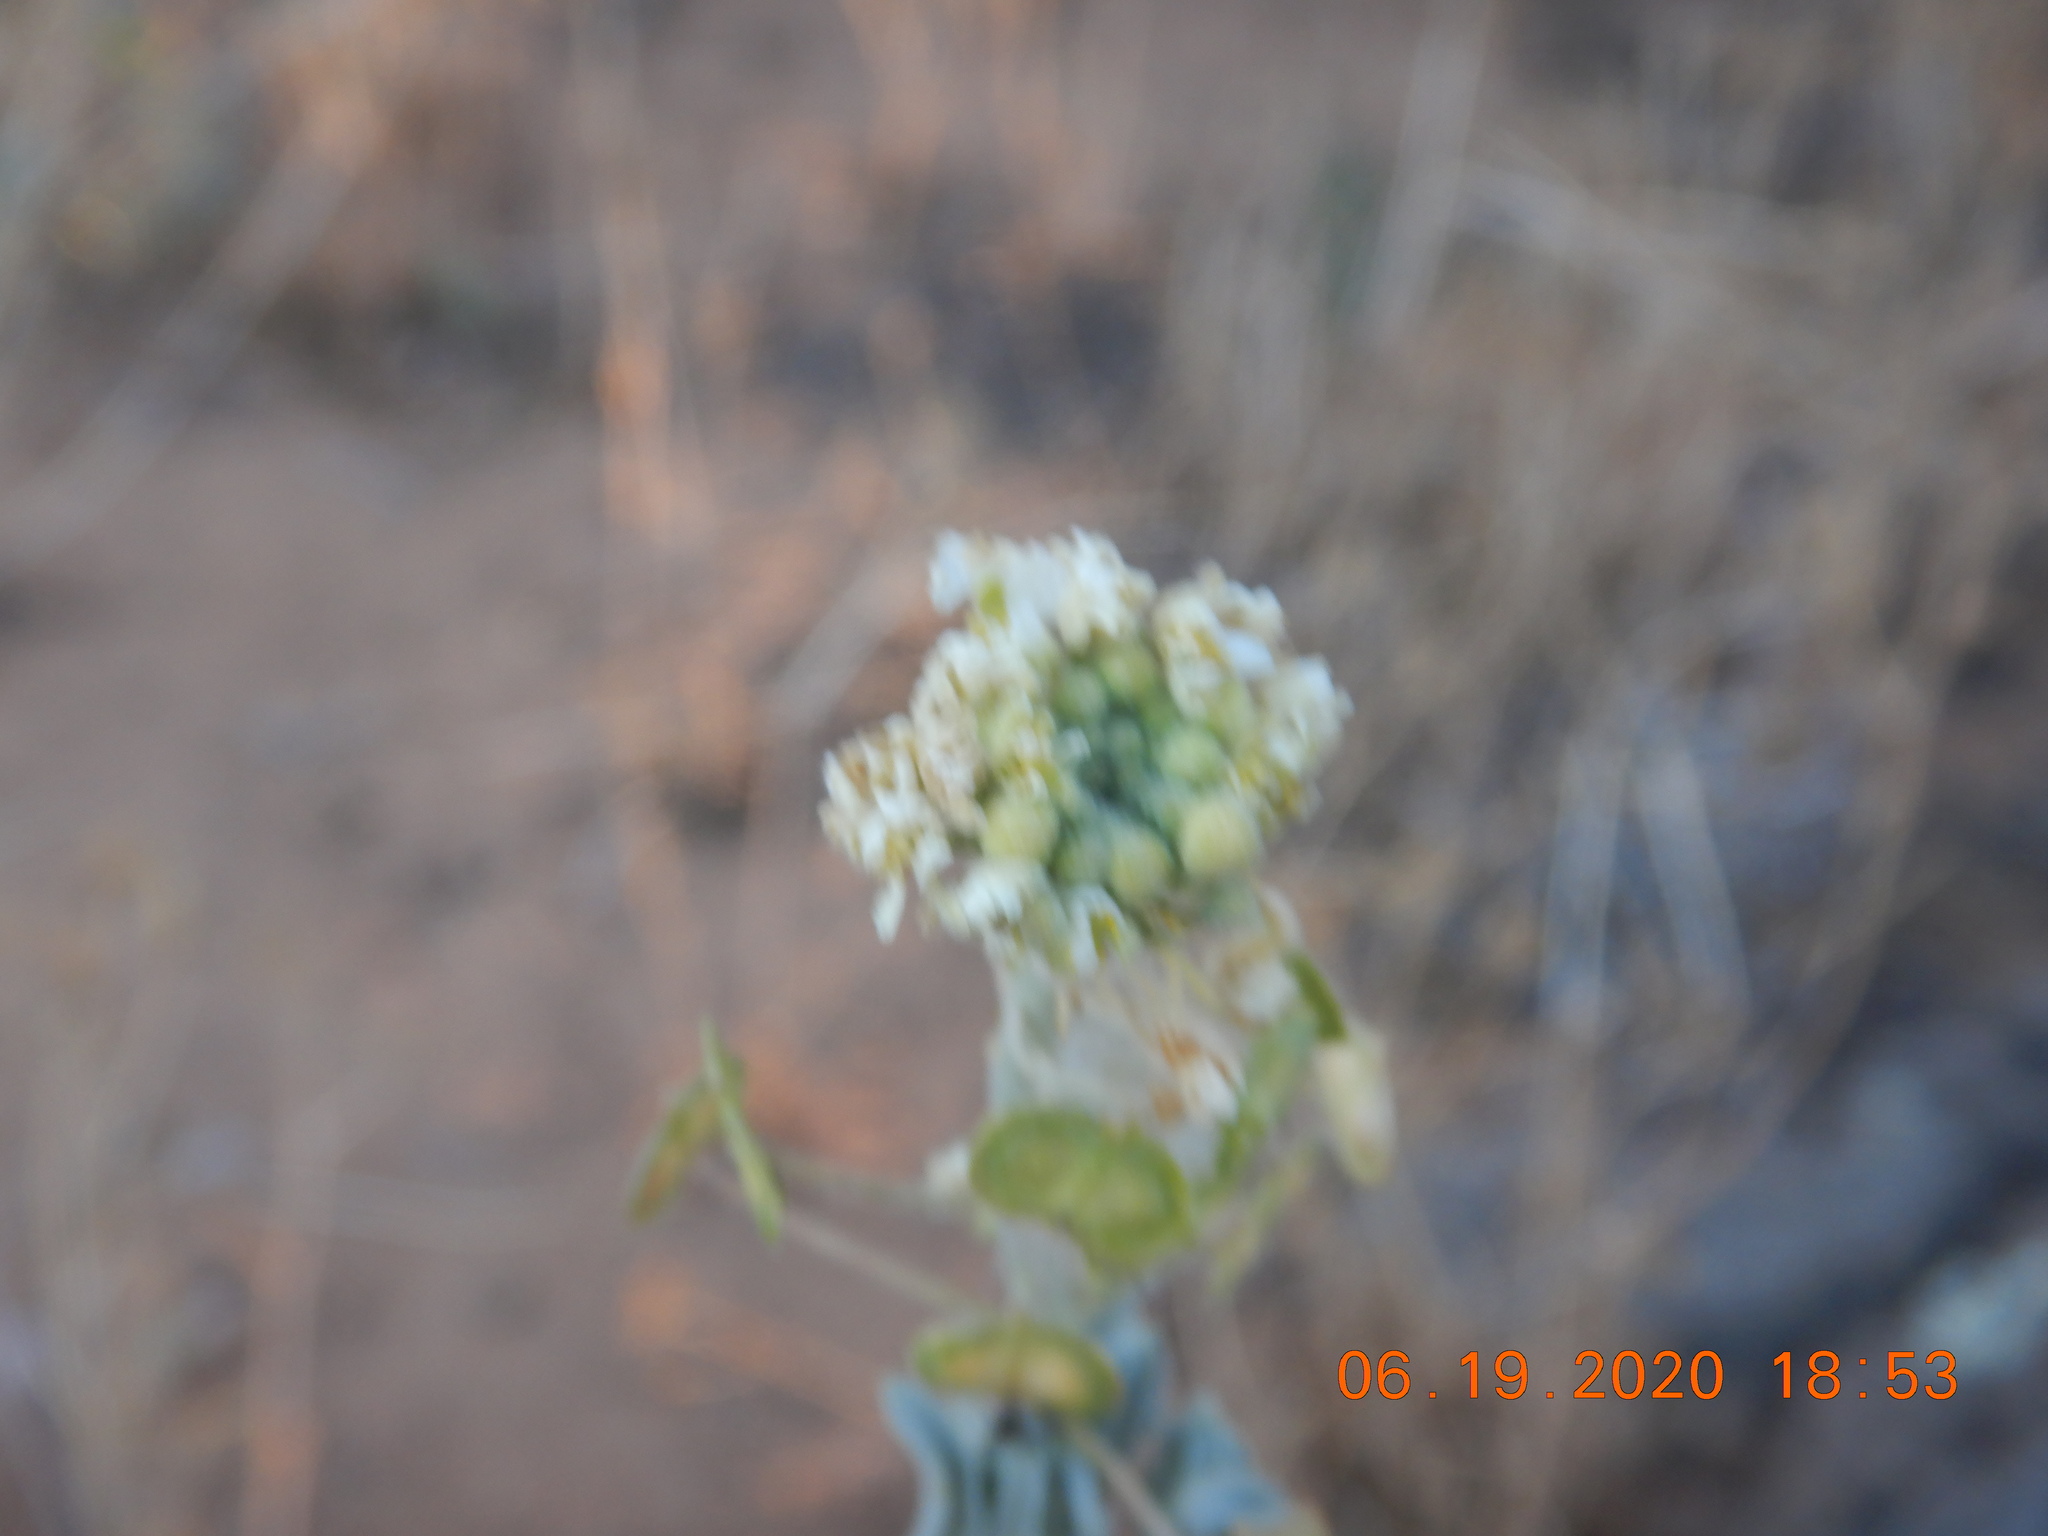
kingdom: Plantae
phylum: Tracheophyta
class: Magnoliopsida
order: Brassicales
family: Brassicaceae
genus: Dimorphocarpa
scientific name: Dimorphocarpa wislizenii
